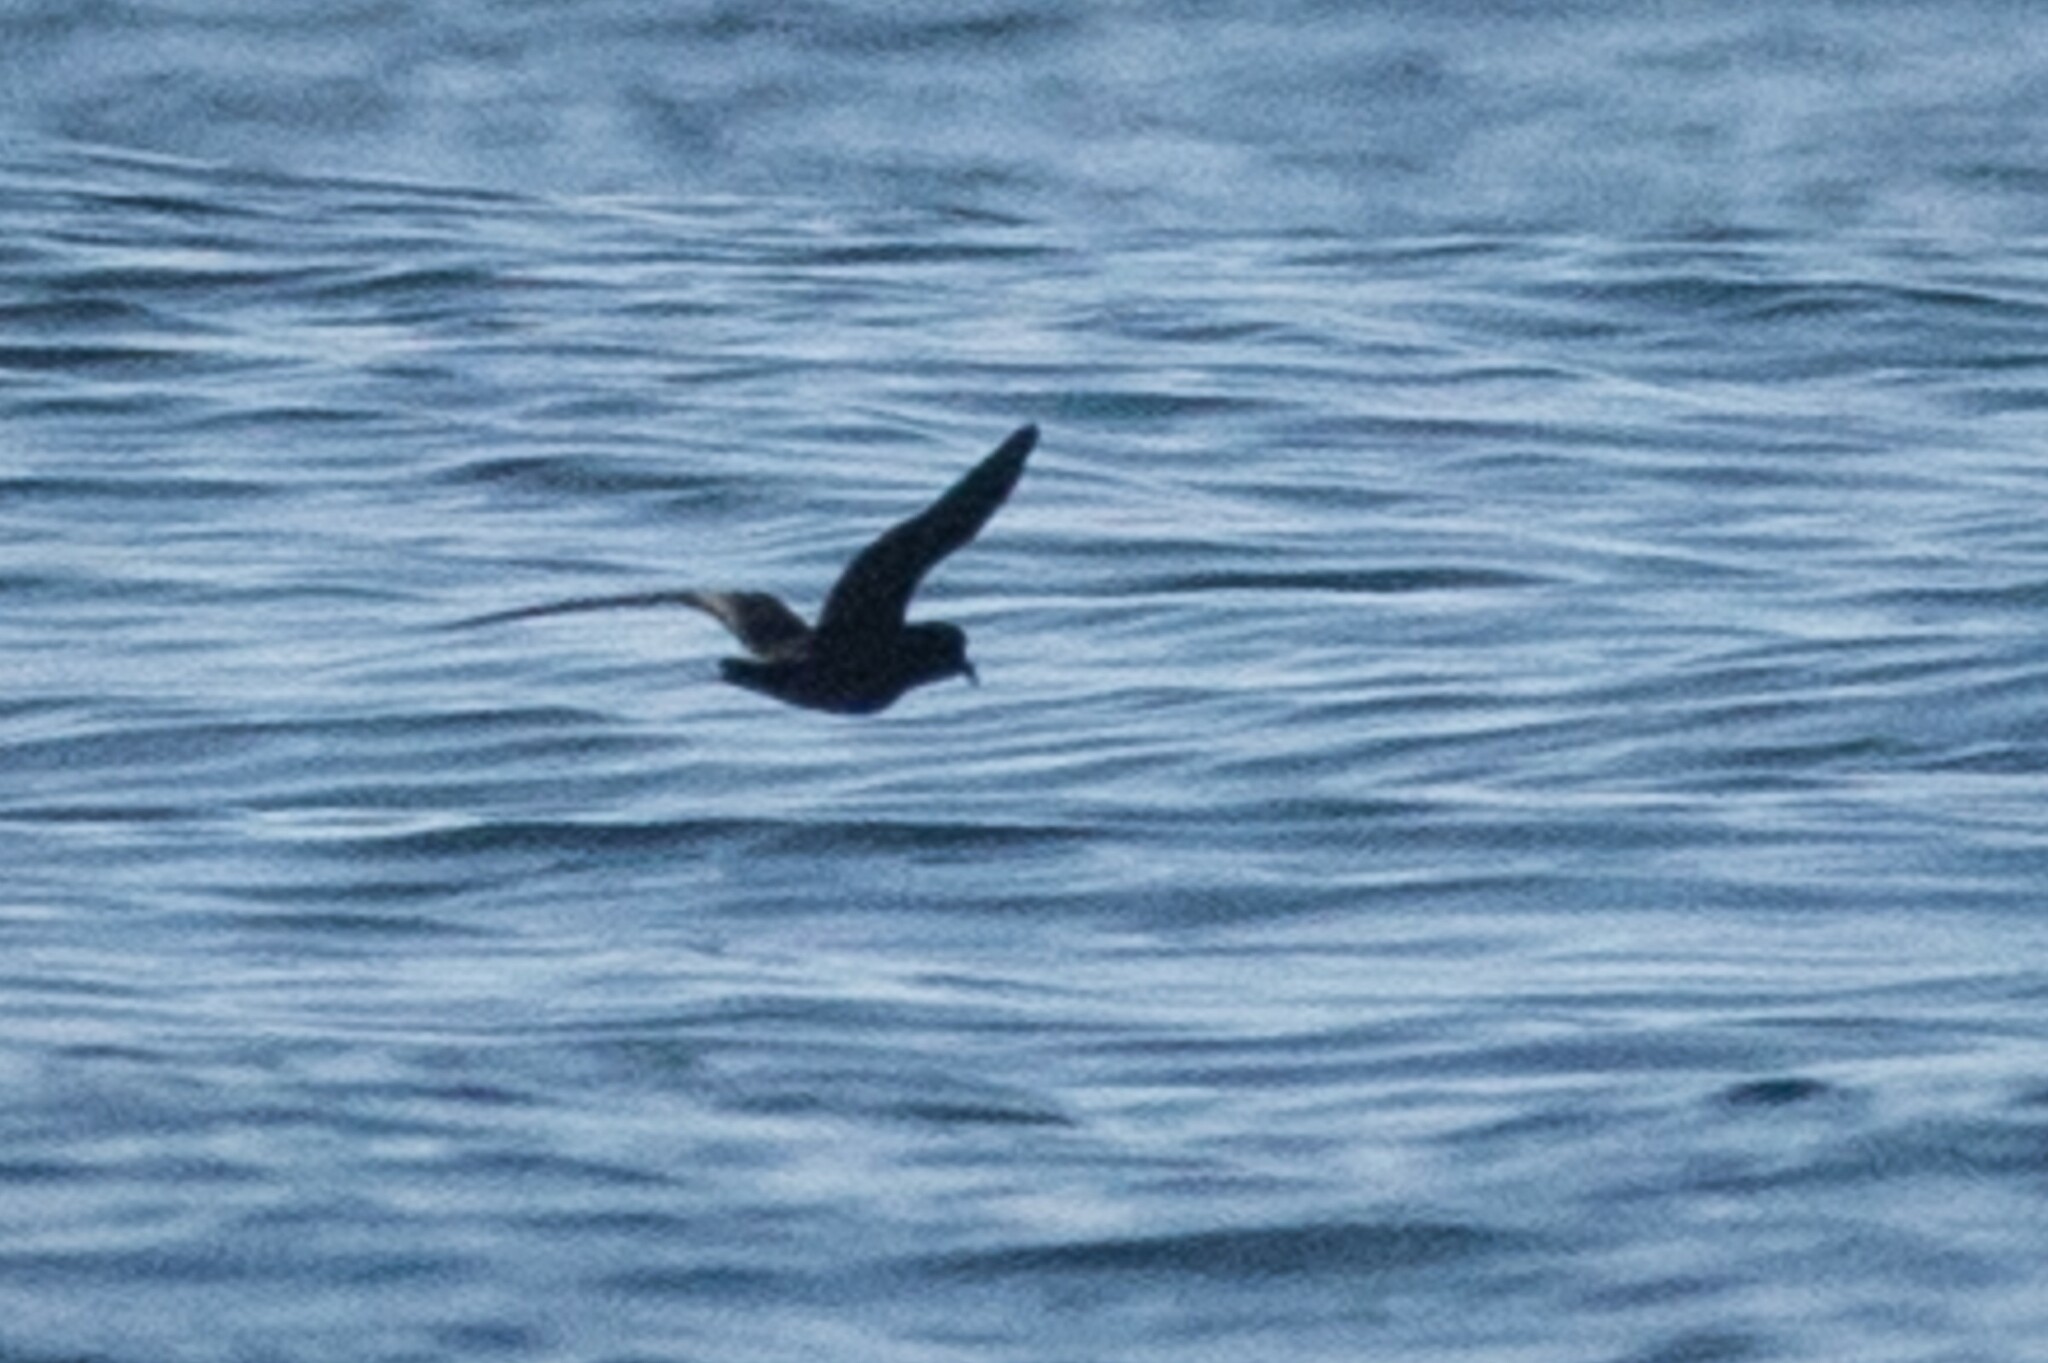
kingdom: Animalia
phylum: Chordata
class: Aves
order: Procellariiformes
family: Hydrobatidae
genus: Hydrobates
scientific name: Hydrobates melania
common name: Black storm petrel
